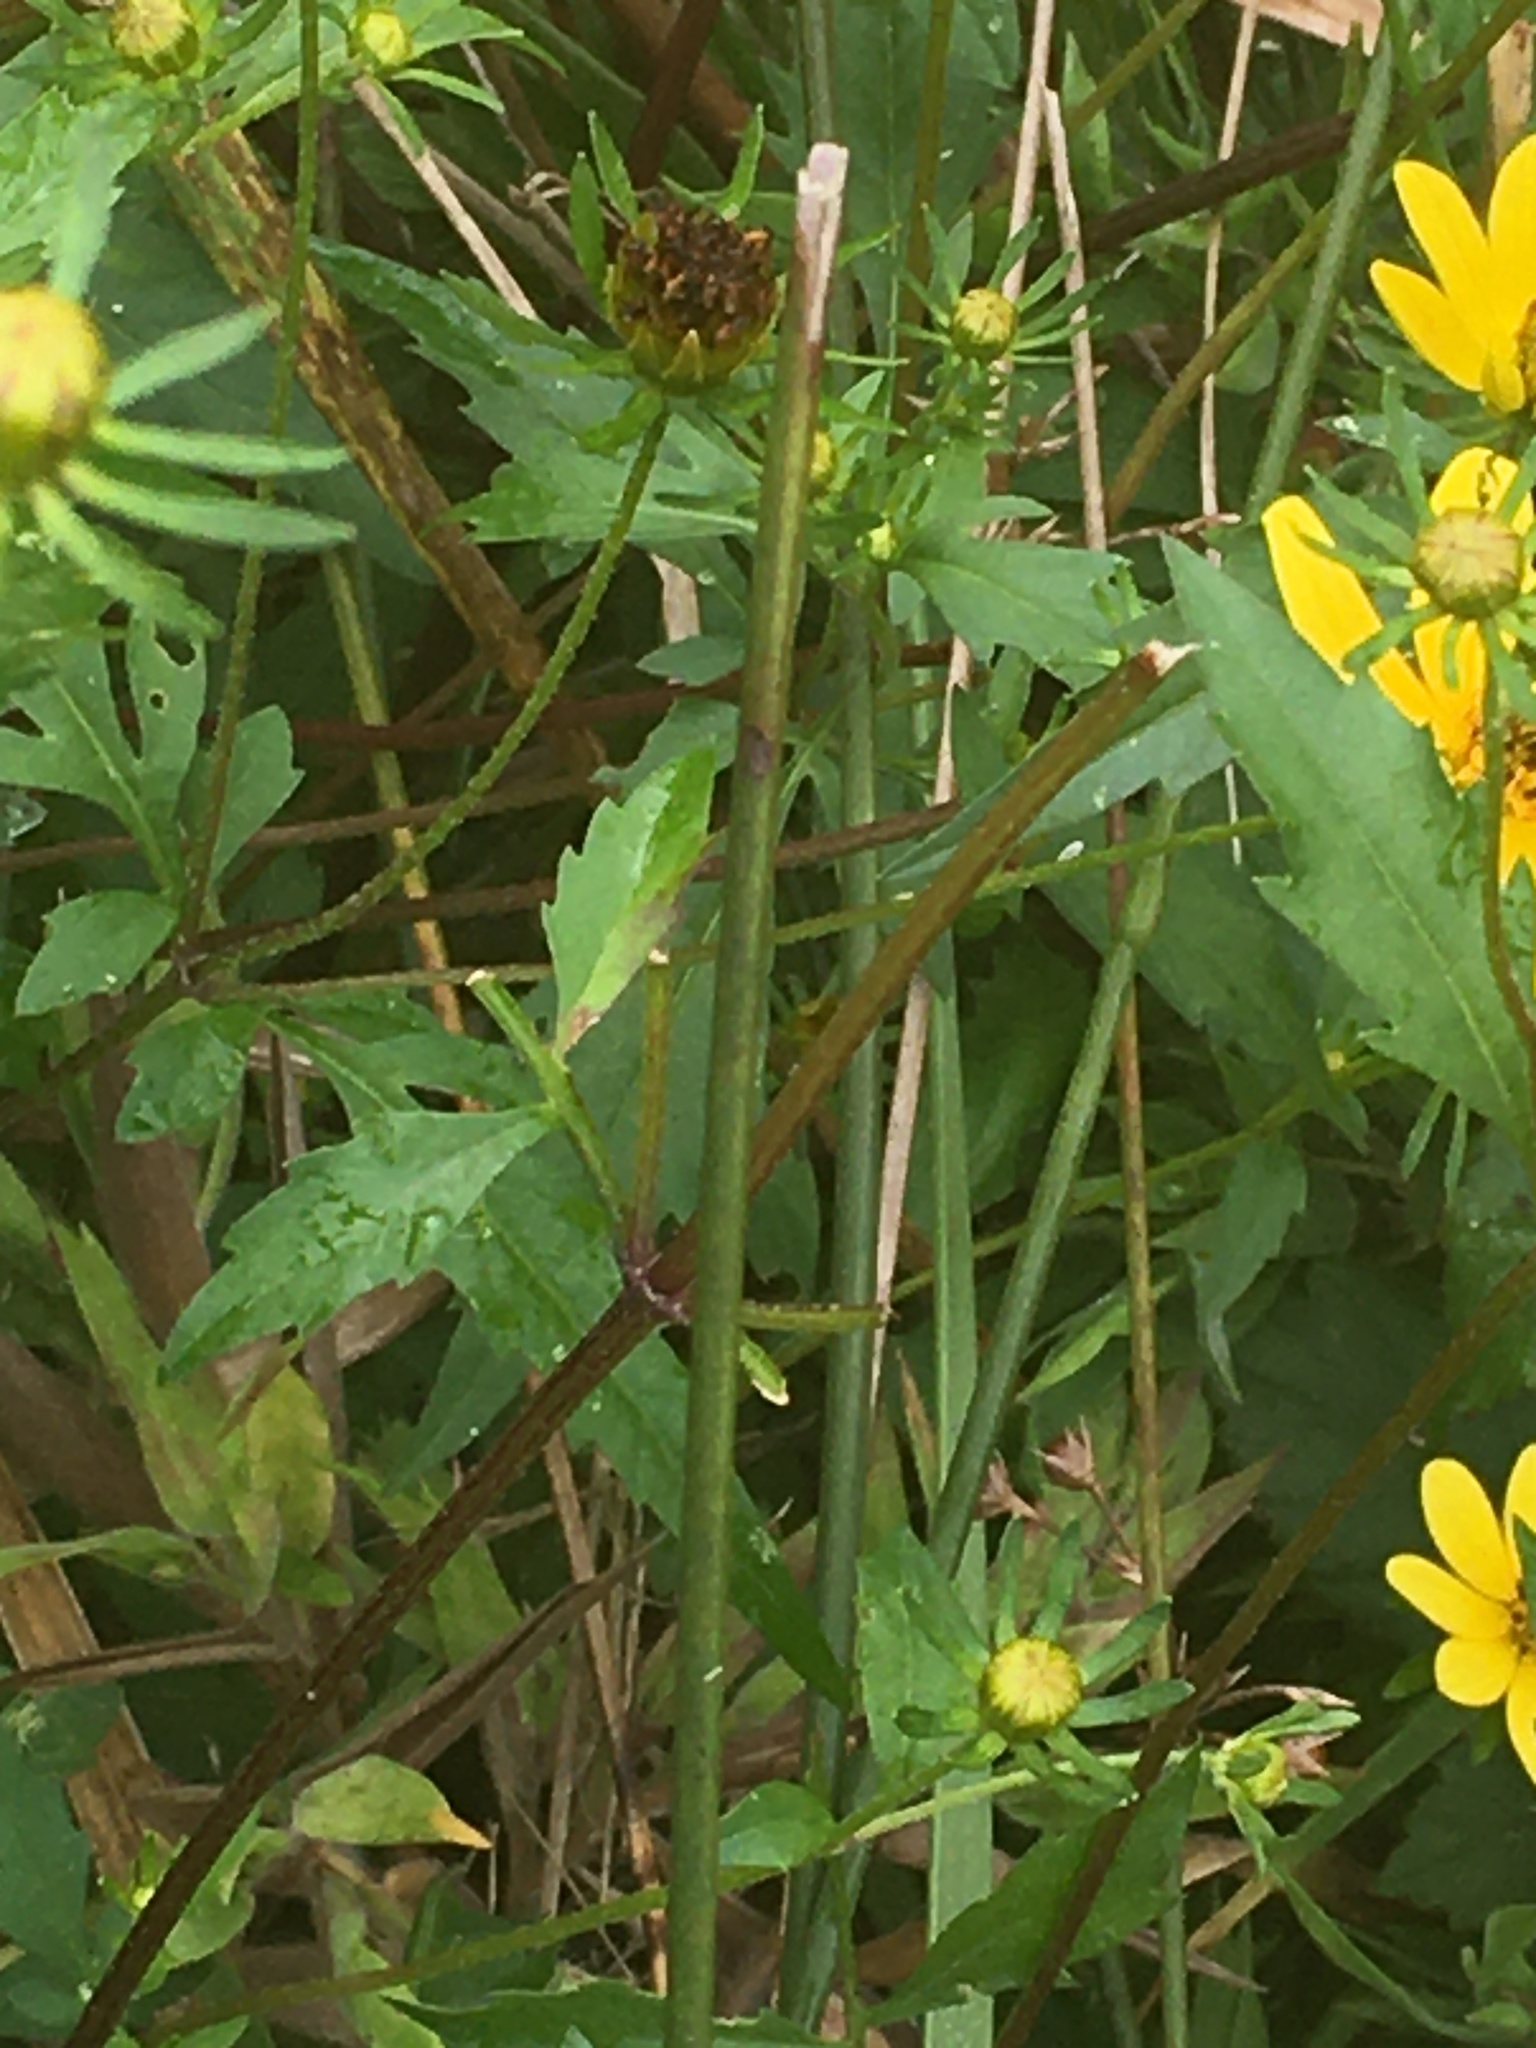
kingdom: Plantae
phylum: Tracheophyta
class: Magnoliopsida
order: Asterales
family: Asteraceae
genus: Bidens
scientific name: Bidens aristosa
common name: Western tickseed
